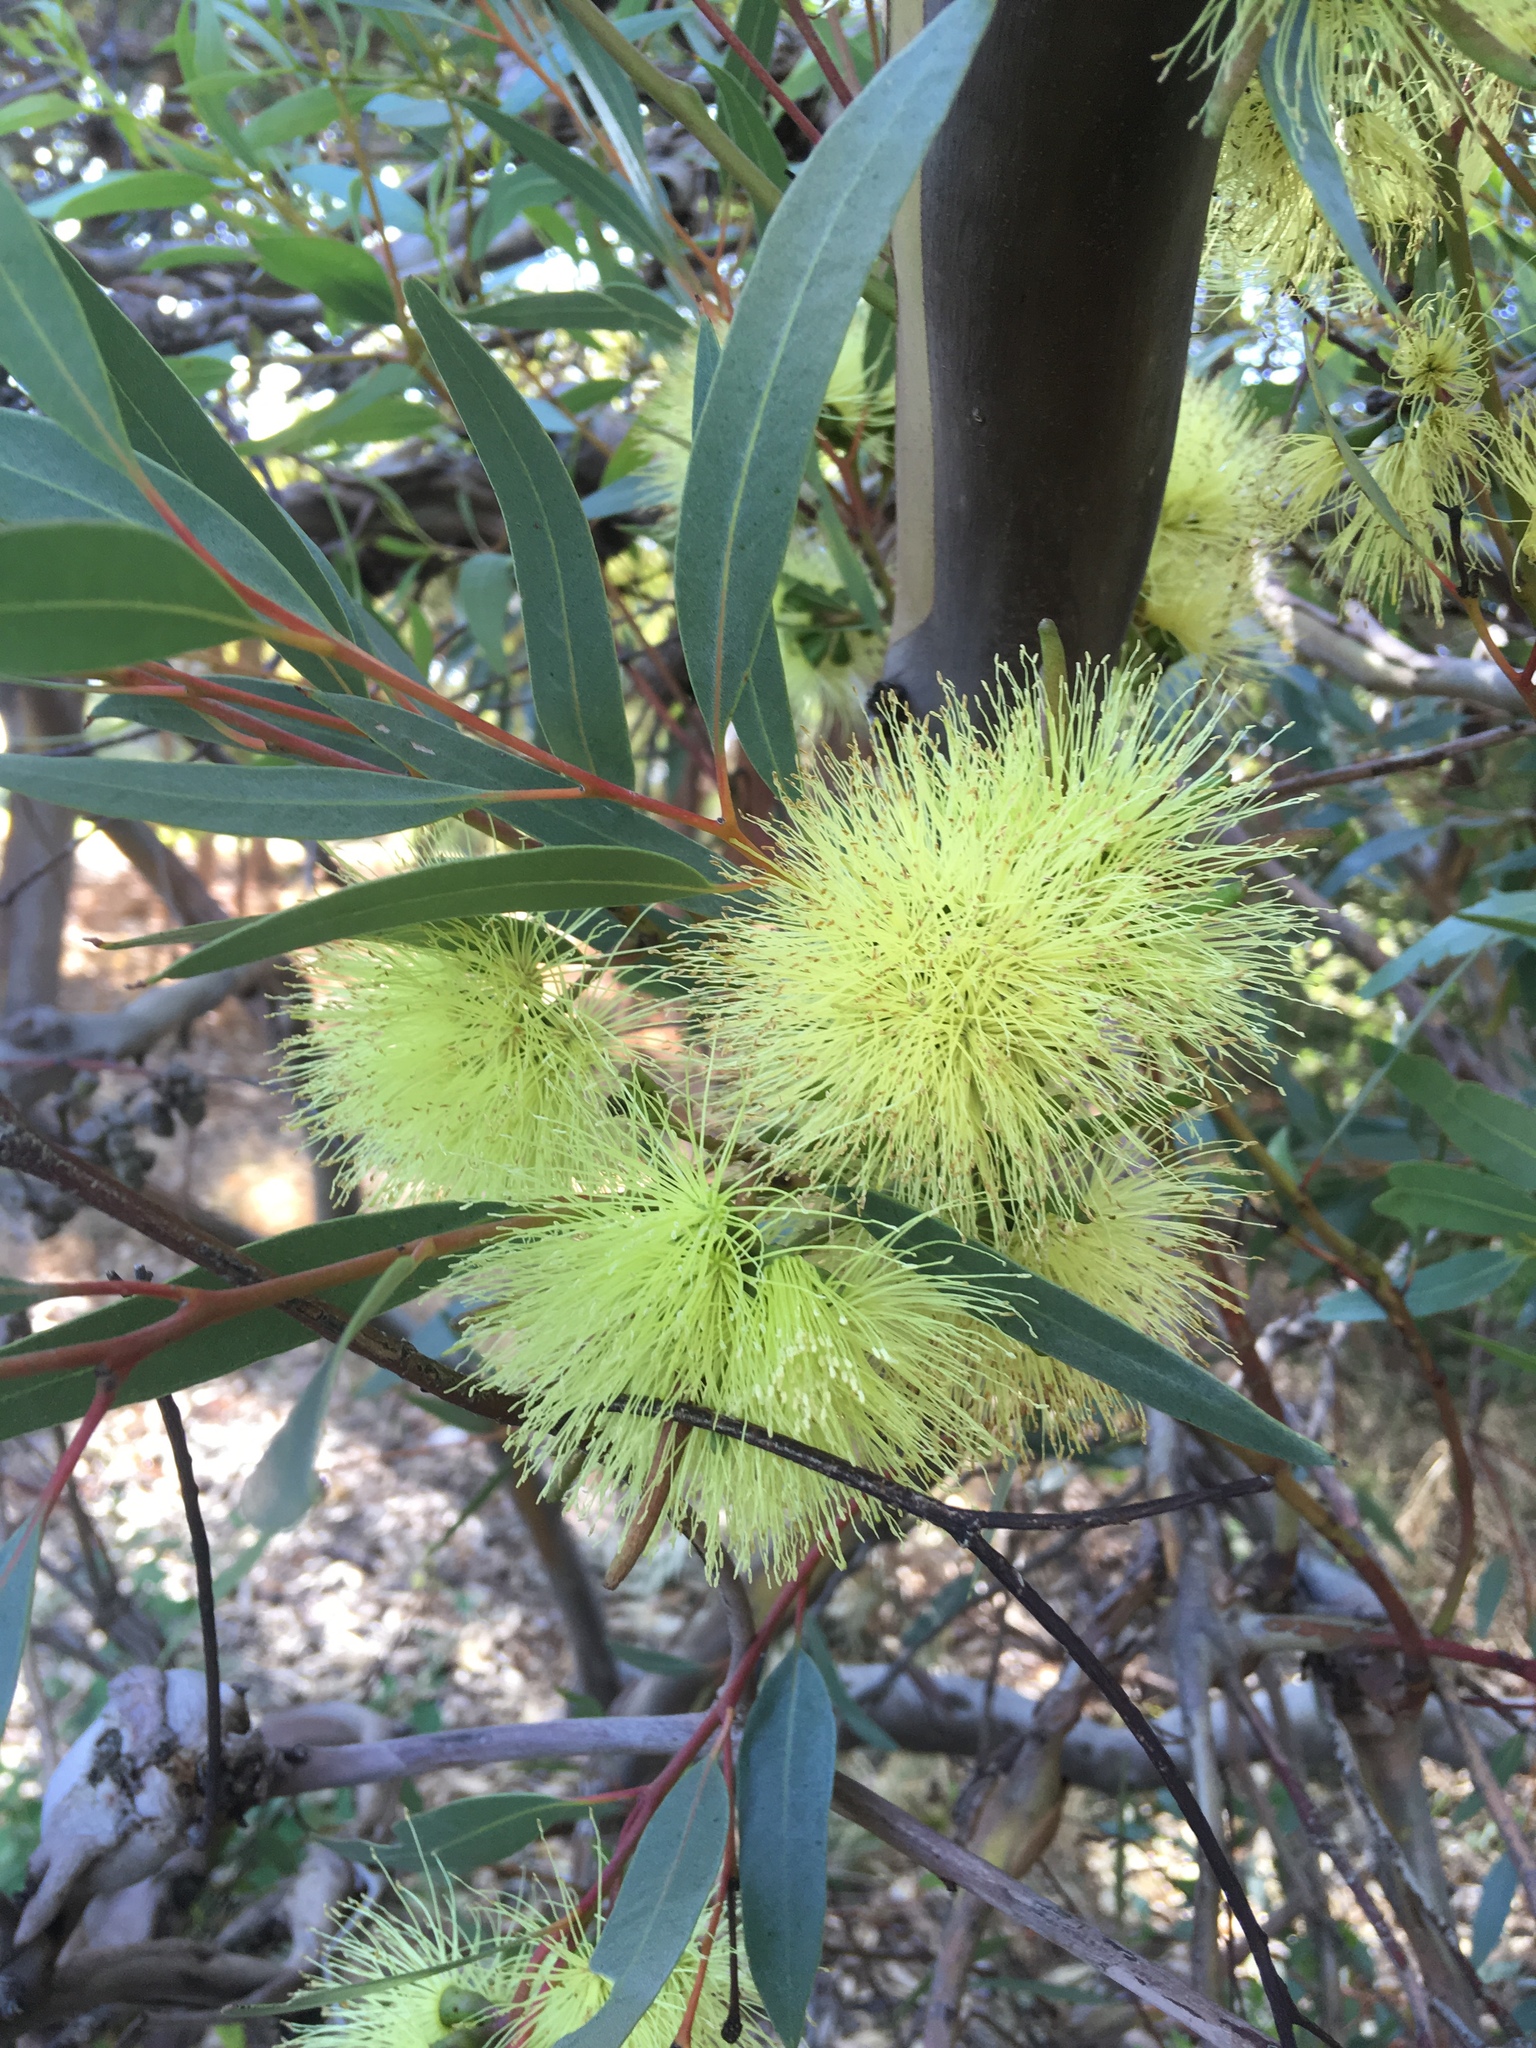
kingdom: Plantae
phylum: Tracheophyta
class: Magnoliopsida
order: Myrtales
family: Myrtaceae
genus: Eucalyptus
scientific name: Eucalyptus macrandra
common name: Longleaf marlock
